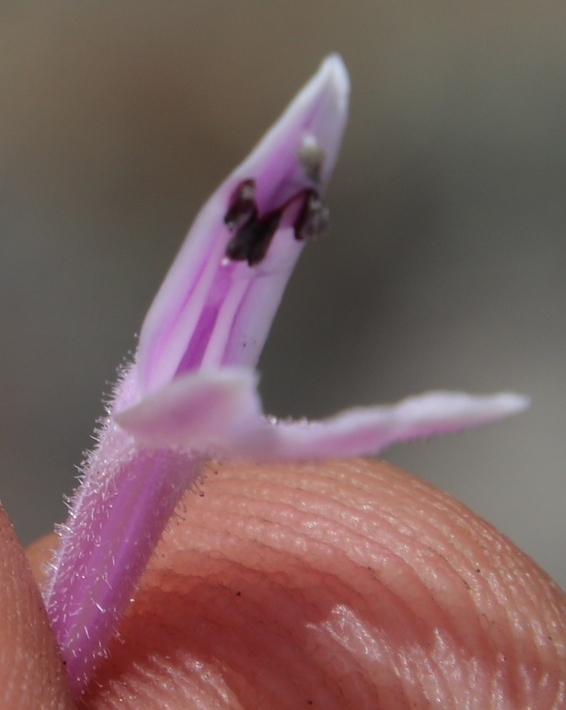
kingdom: Plantae
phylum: Tracheophyta
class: Magnoliopsida
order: Lamiales
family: Acanthaceae
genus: Justicia
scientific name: Justicia linifolia
